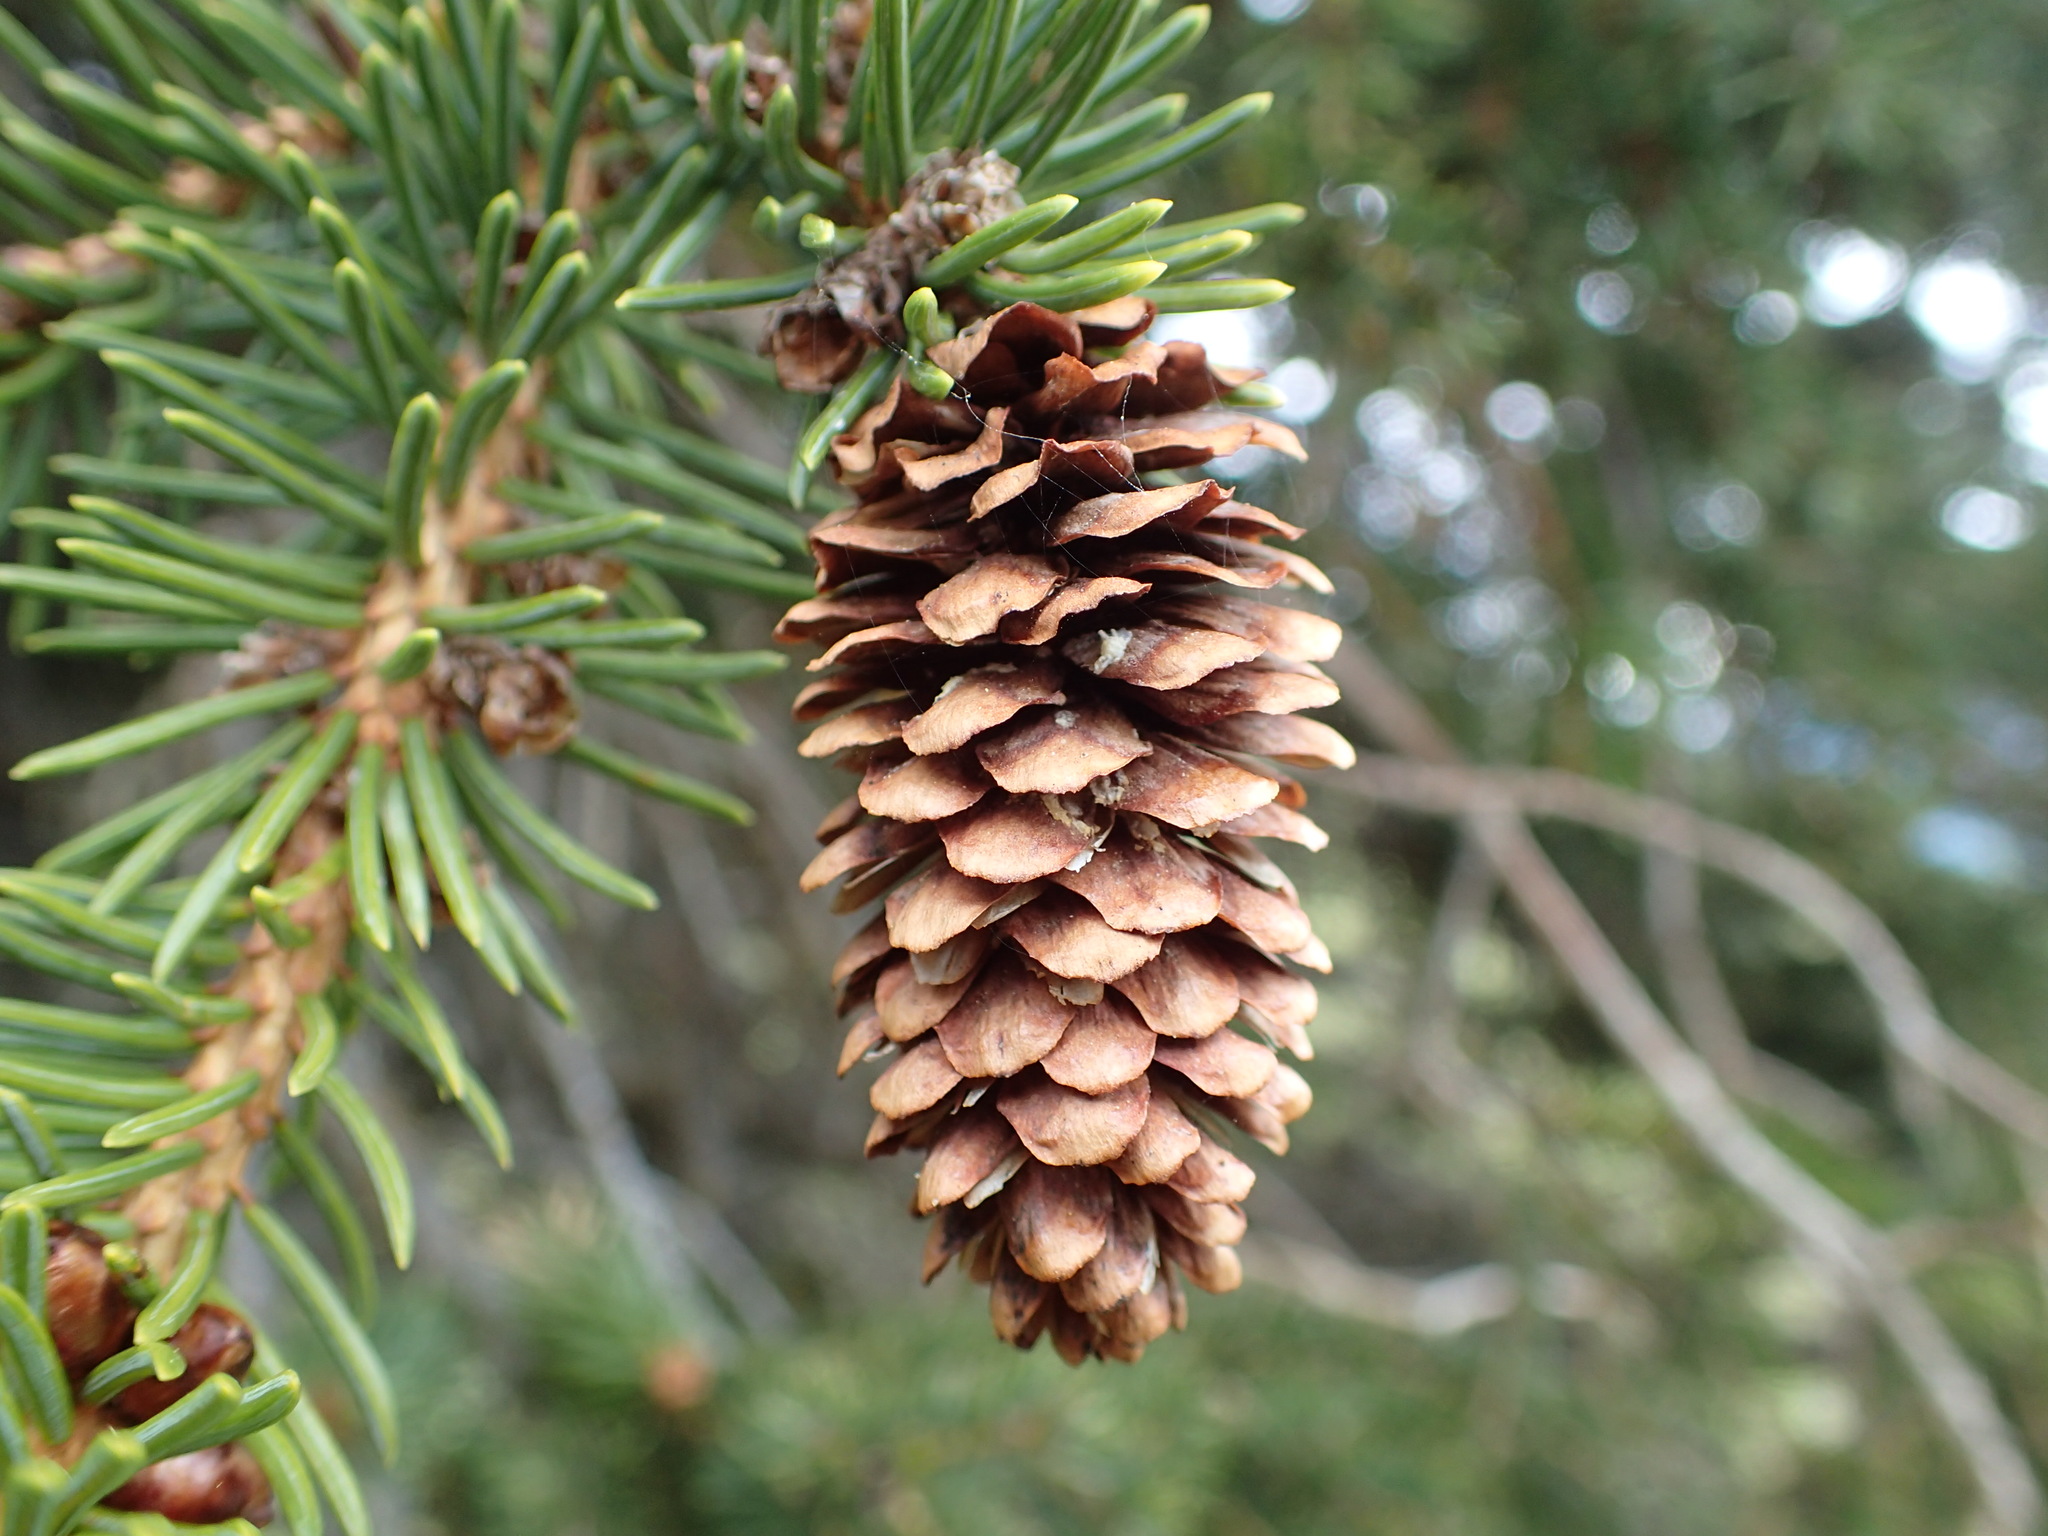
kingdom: Plantae
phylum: Tracheophyta
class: Pinopsida
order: Pinales
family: Pinaceae
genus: Picea
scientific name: Picea lutzii
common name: Lutz spruce
